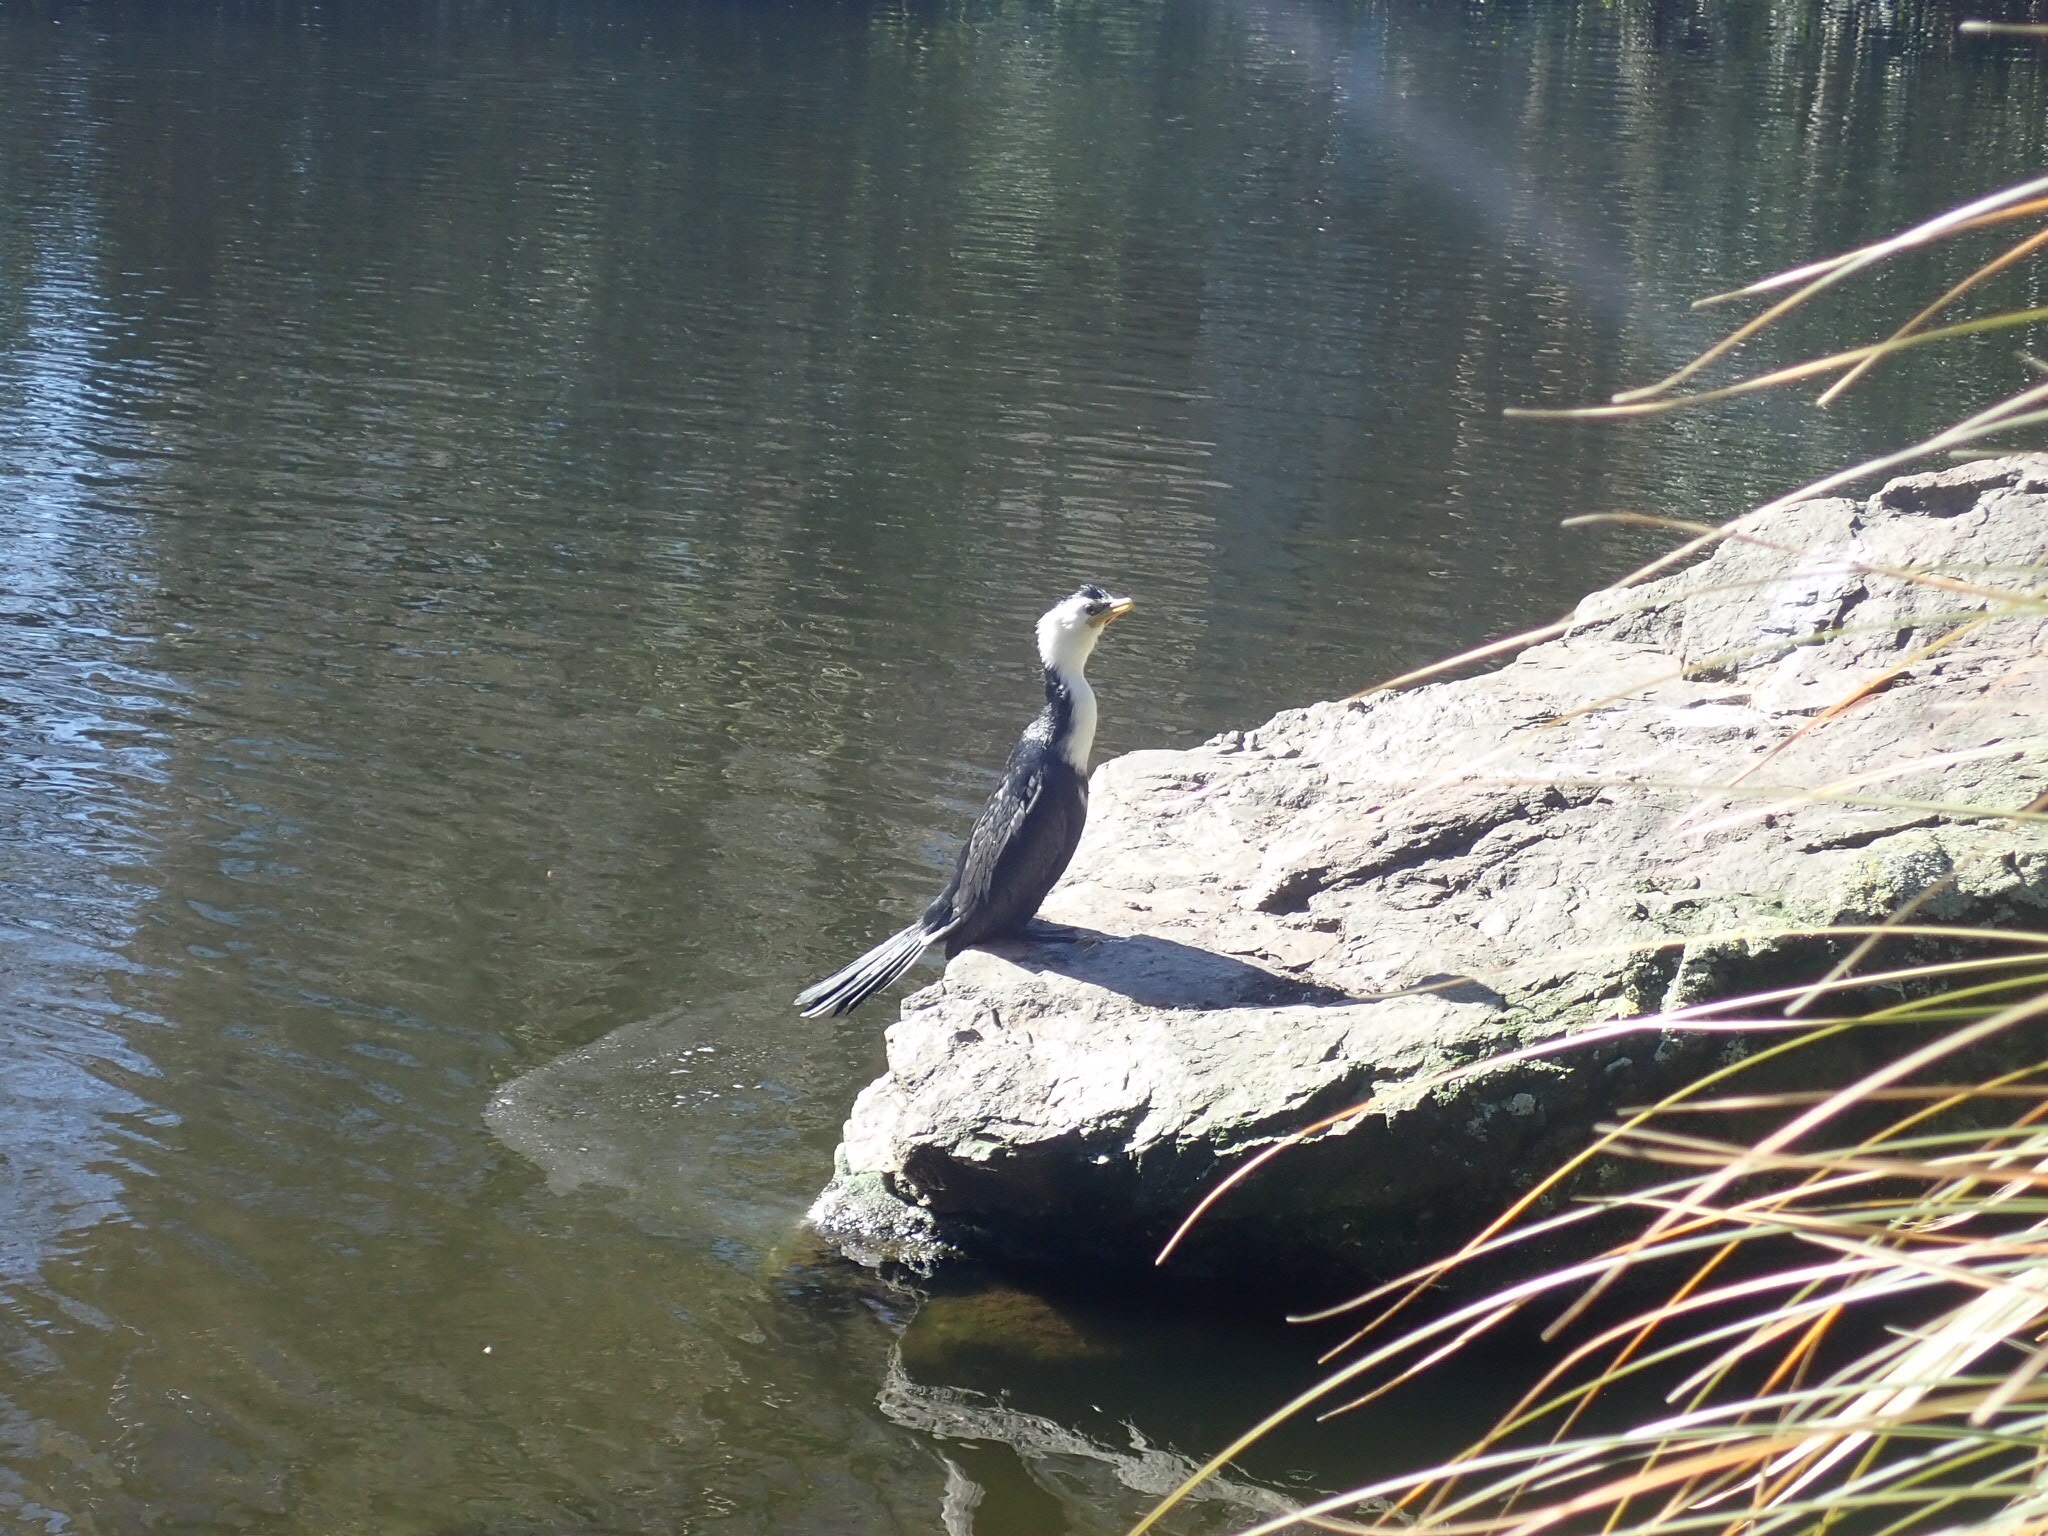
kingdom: Animalia
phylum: Chordata
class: Aves
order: Suliformes
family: Phalacrocoracidae
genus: Microcarbo
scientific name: Microcarbo melanoleucos
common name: Little pied cormorant
